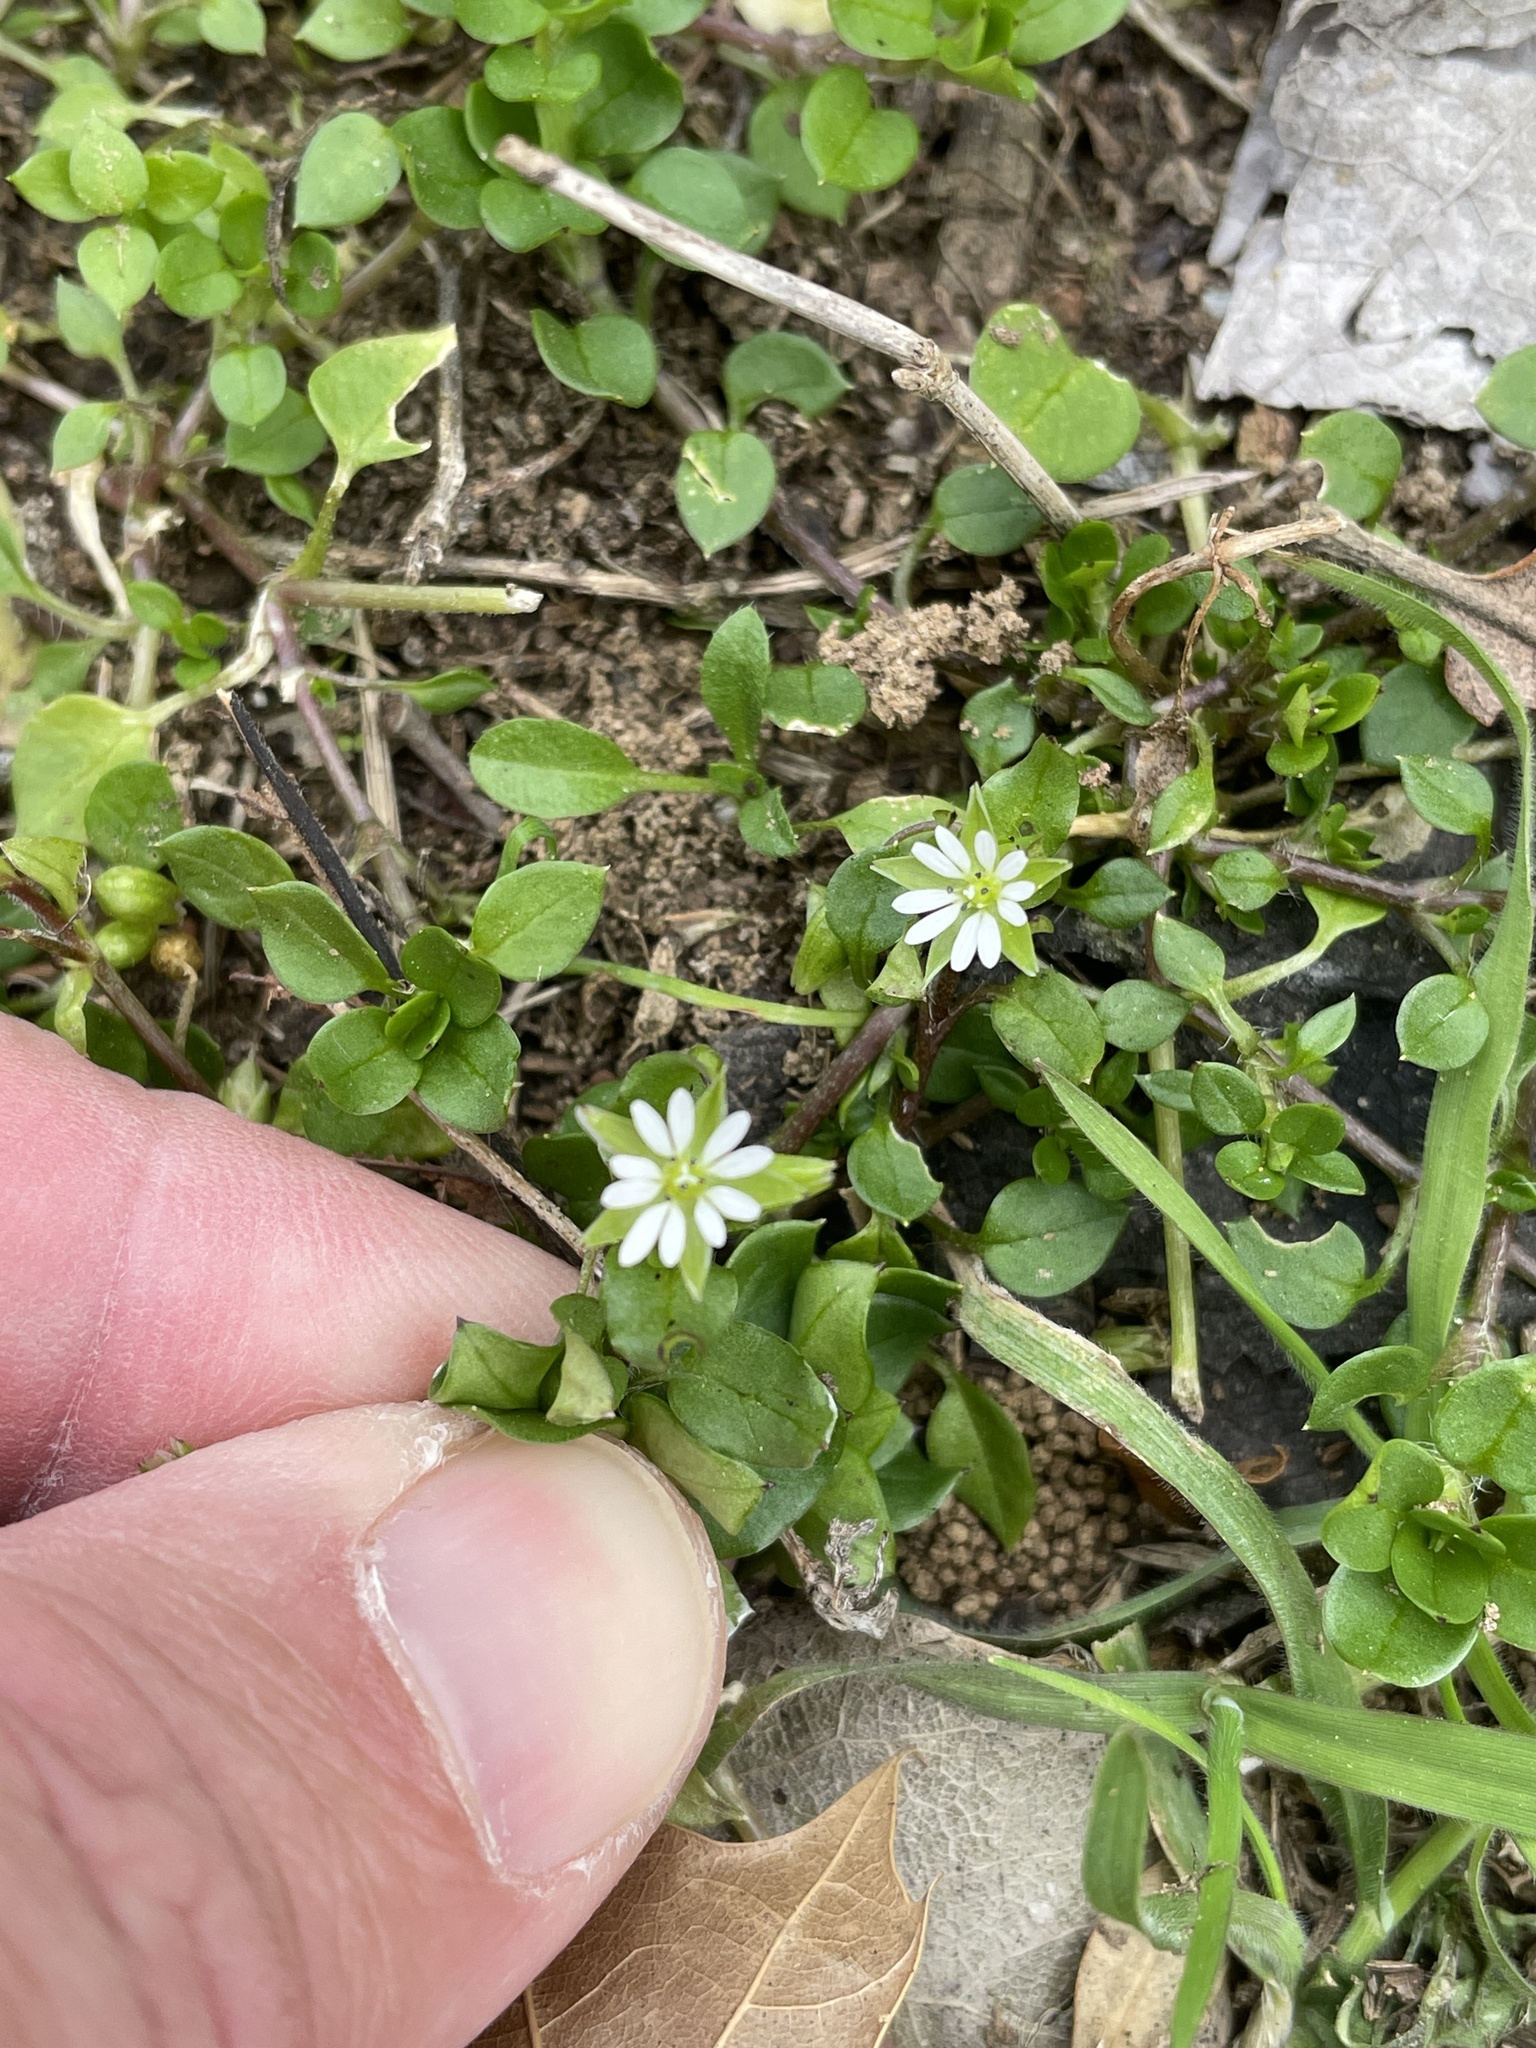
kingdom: Plantae
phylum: Tracheophyta
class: Magnoliopsida
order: Caryophyllales
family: Caryophyllaceae
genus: Stellaria
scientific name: Stellaria media
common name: Common chickweed
